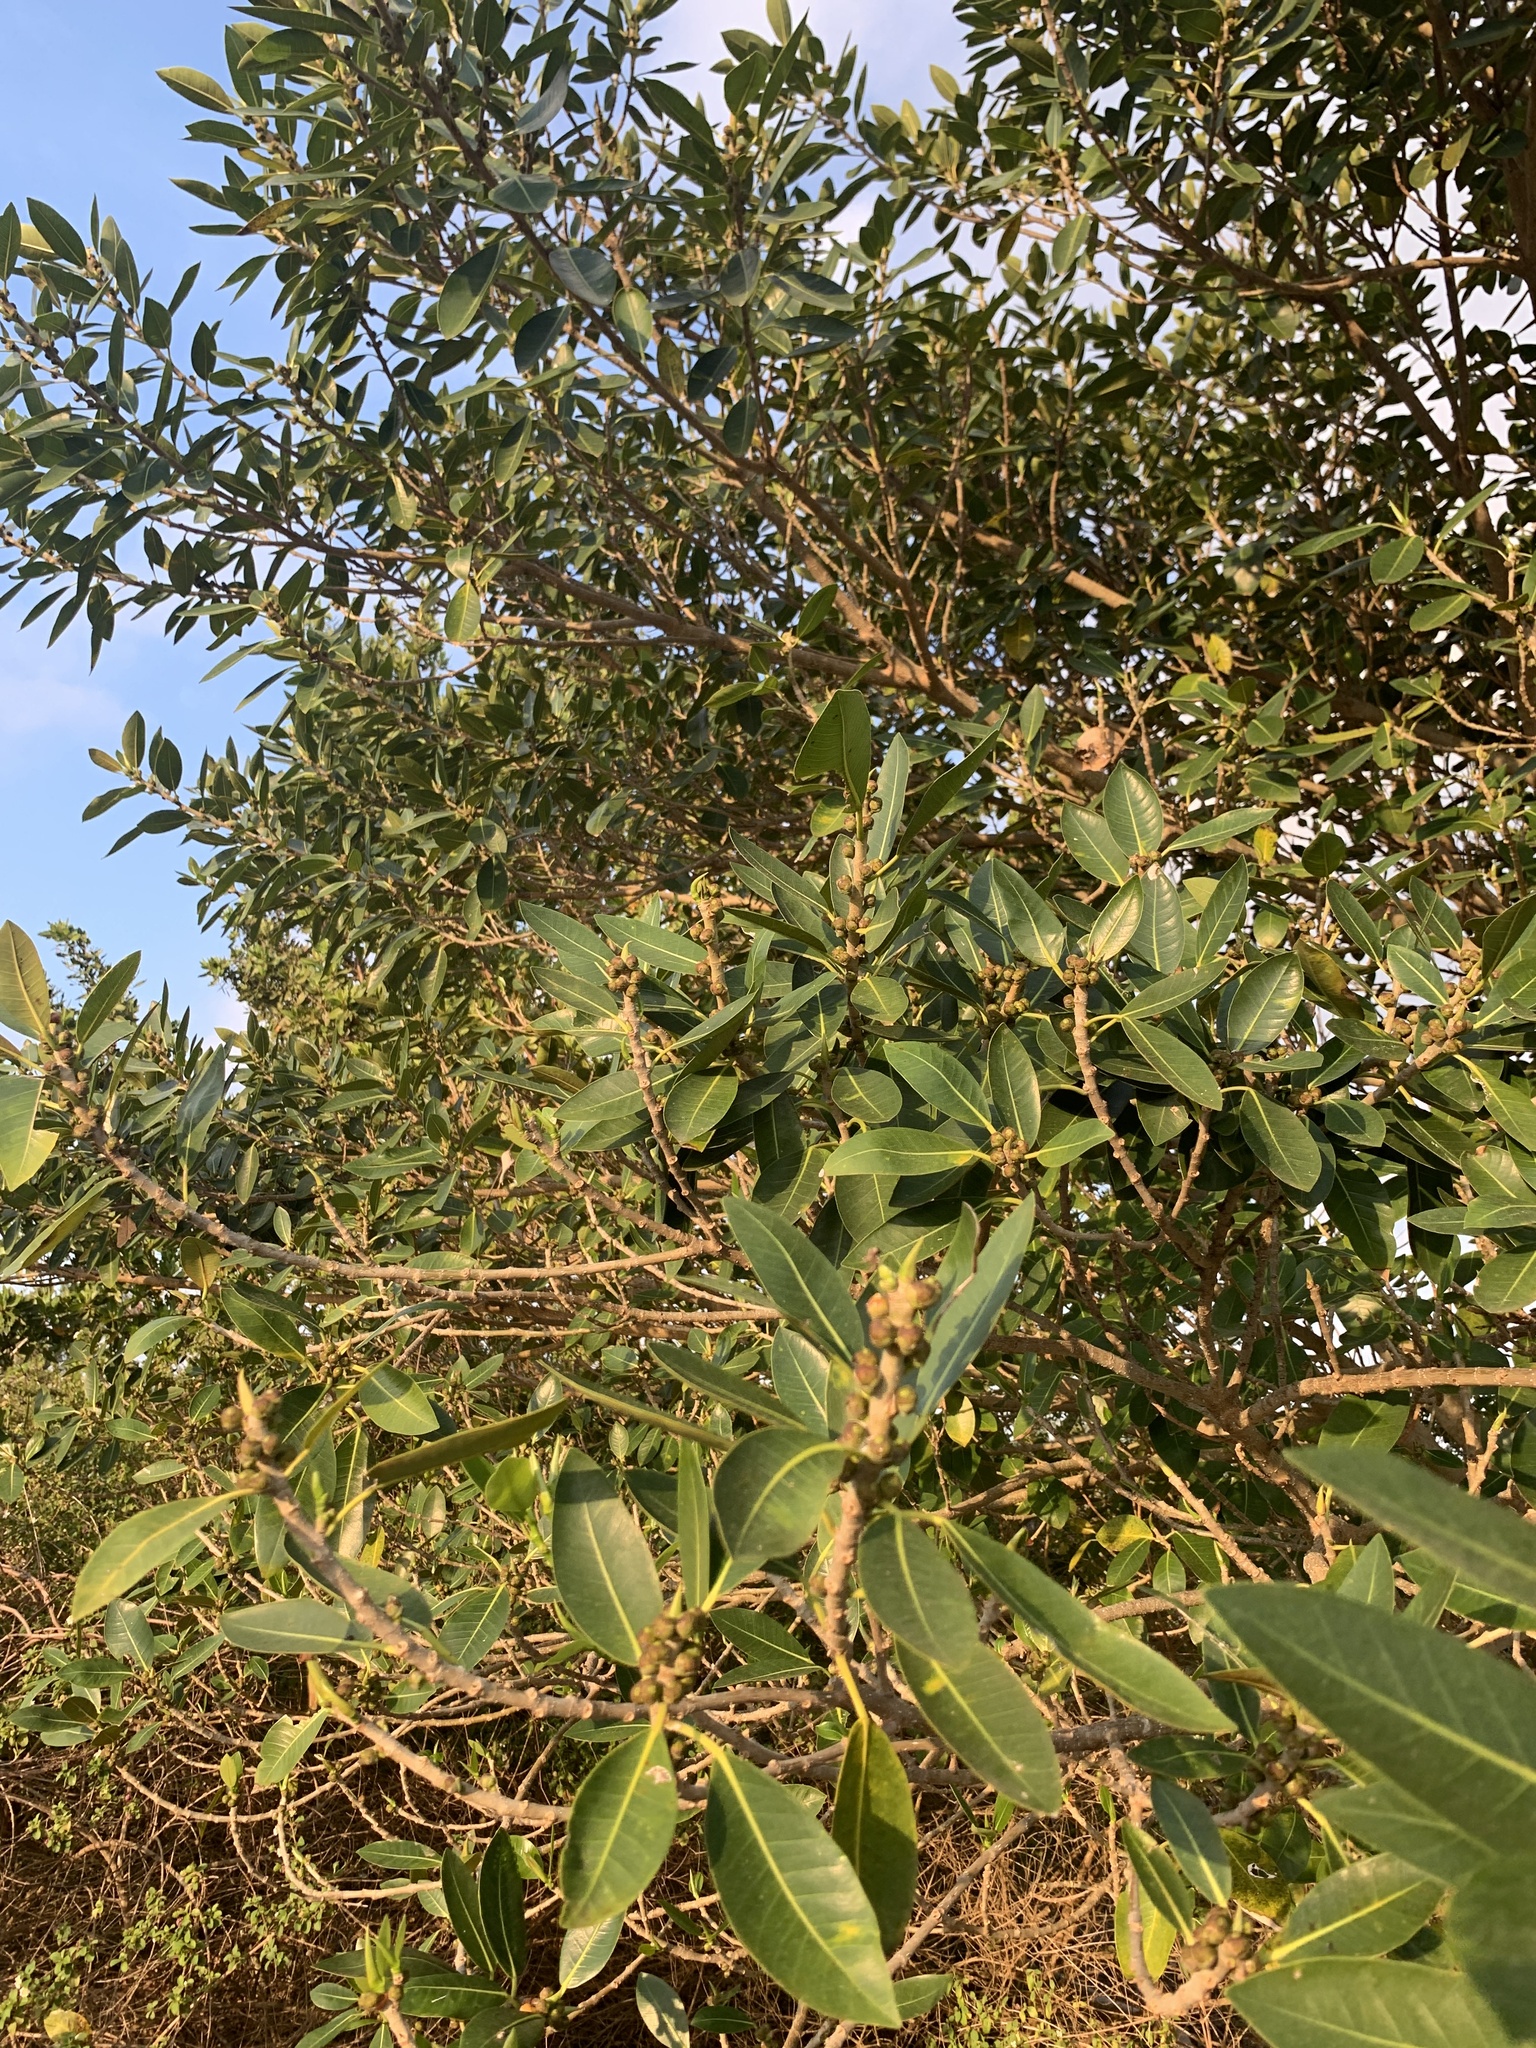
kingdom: Plantae
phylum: Tracheophyta
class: Magnoliopsida
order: Rosales
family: Moraceae
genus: Ficus
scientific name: Ficus aurea
